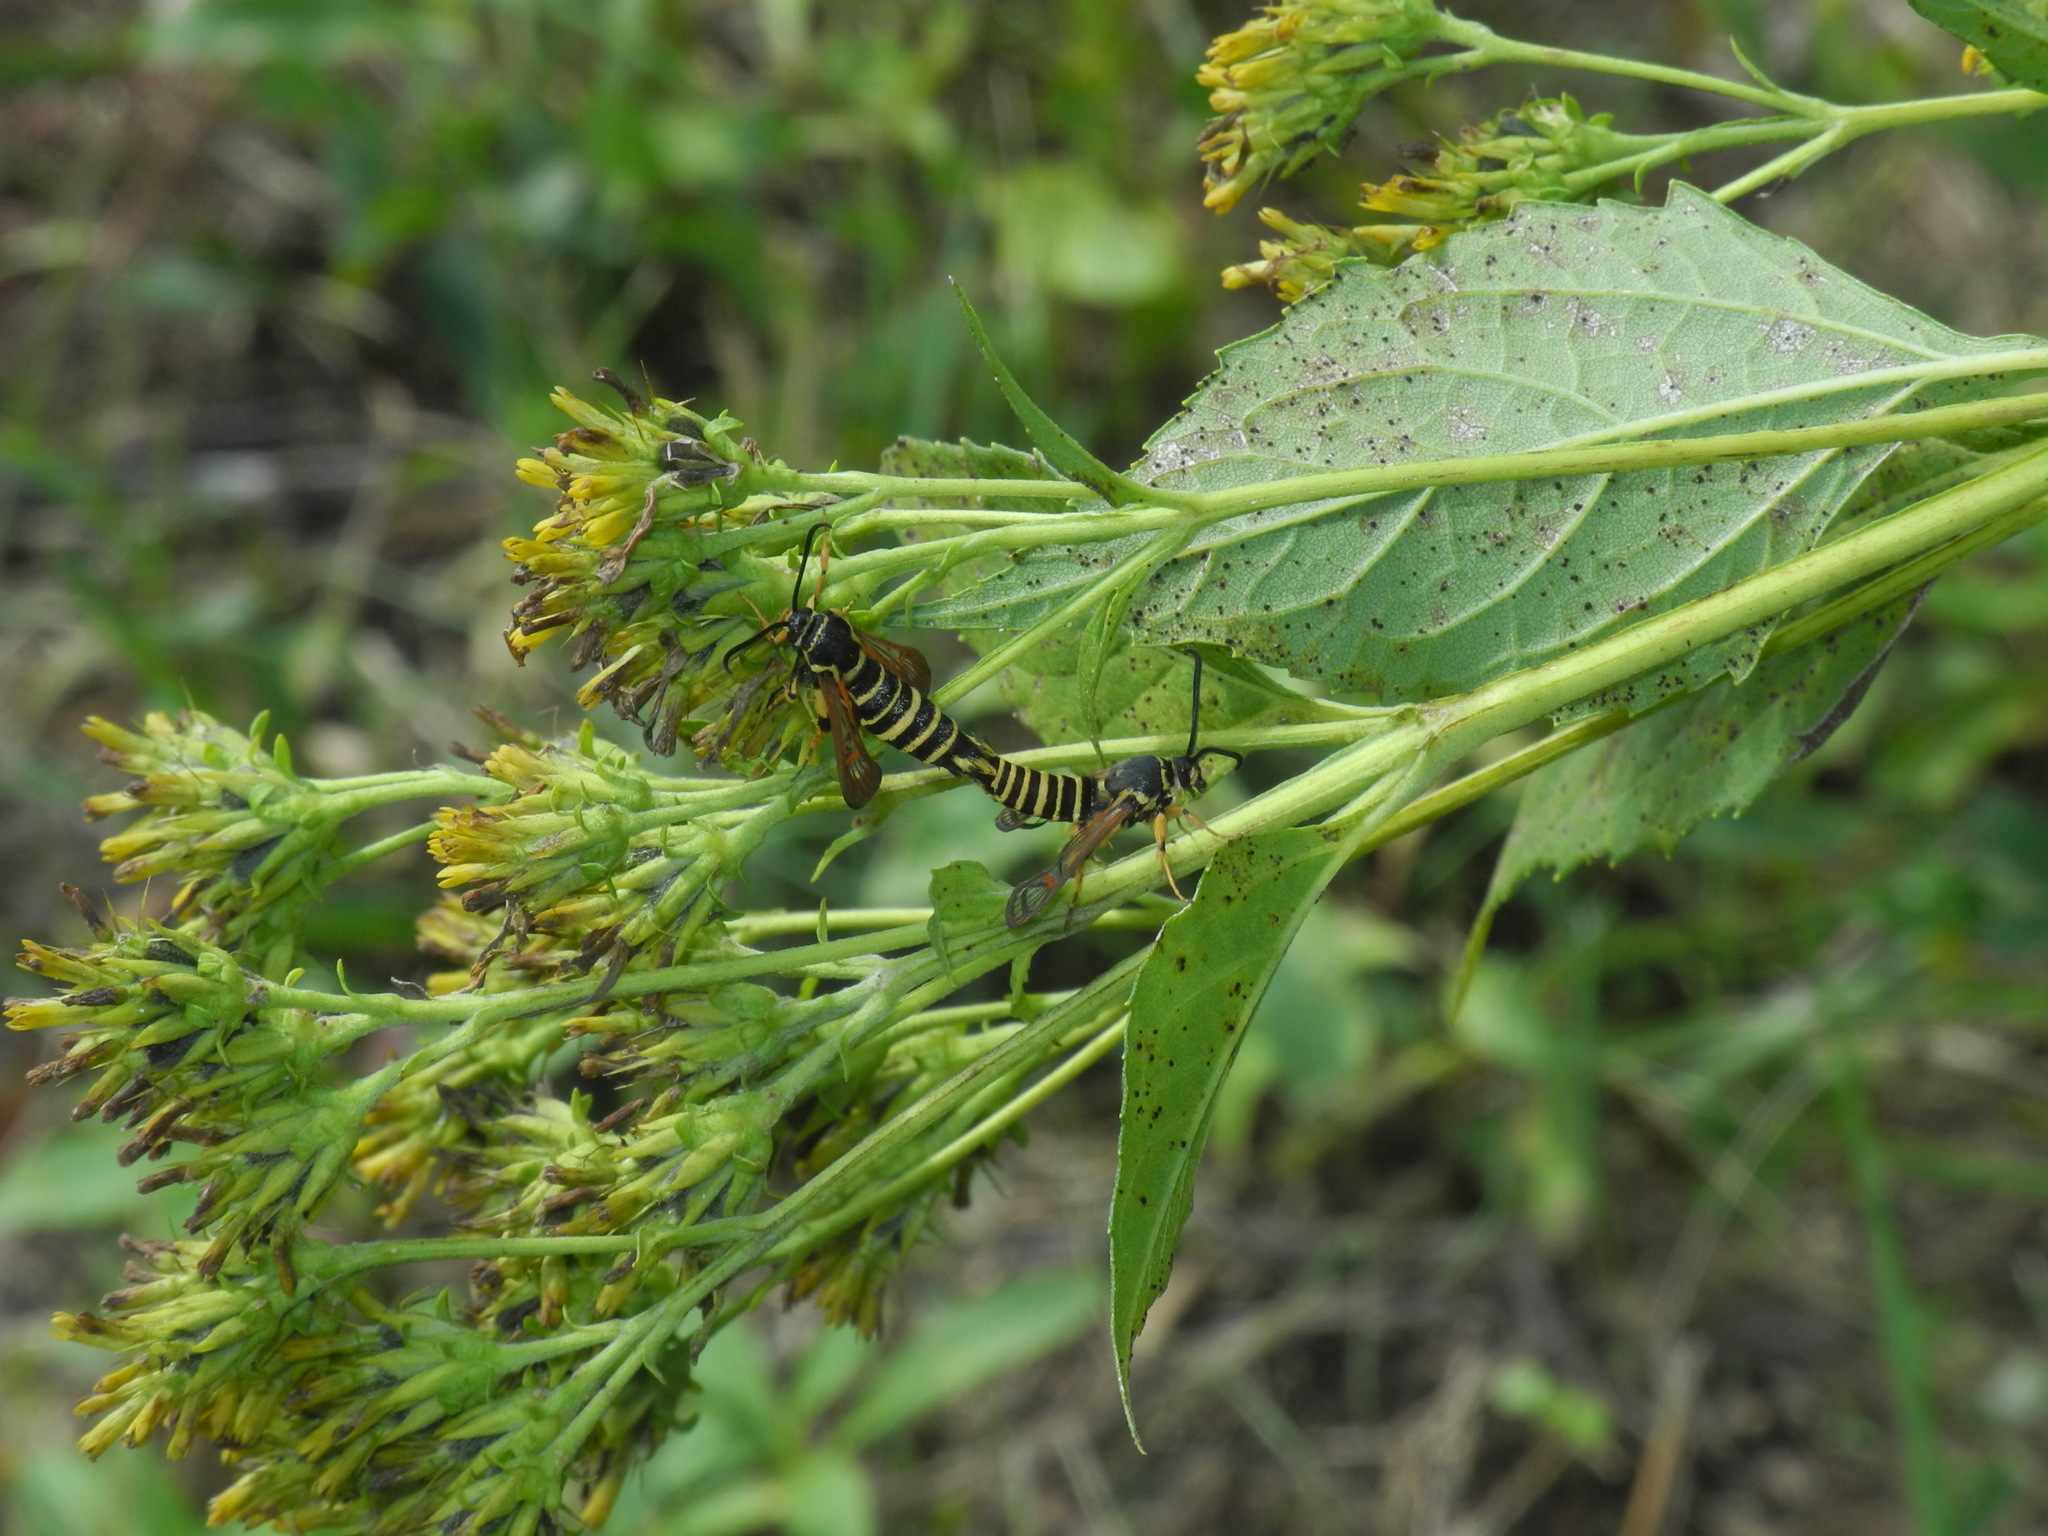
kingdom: Animalia
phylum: Arthropoda
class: Insecta
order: Lepidoptera
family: Sesiidae
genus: Synanthedon
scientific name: Synanthedon rileyana
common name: Riley's clearwing moth
